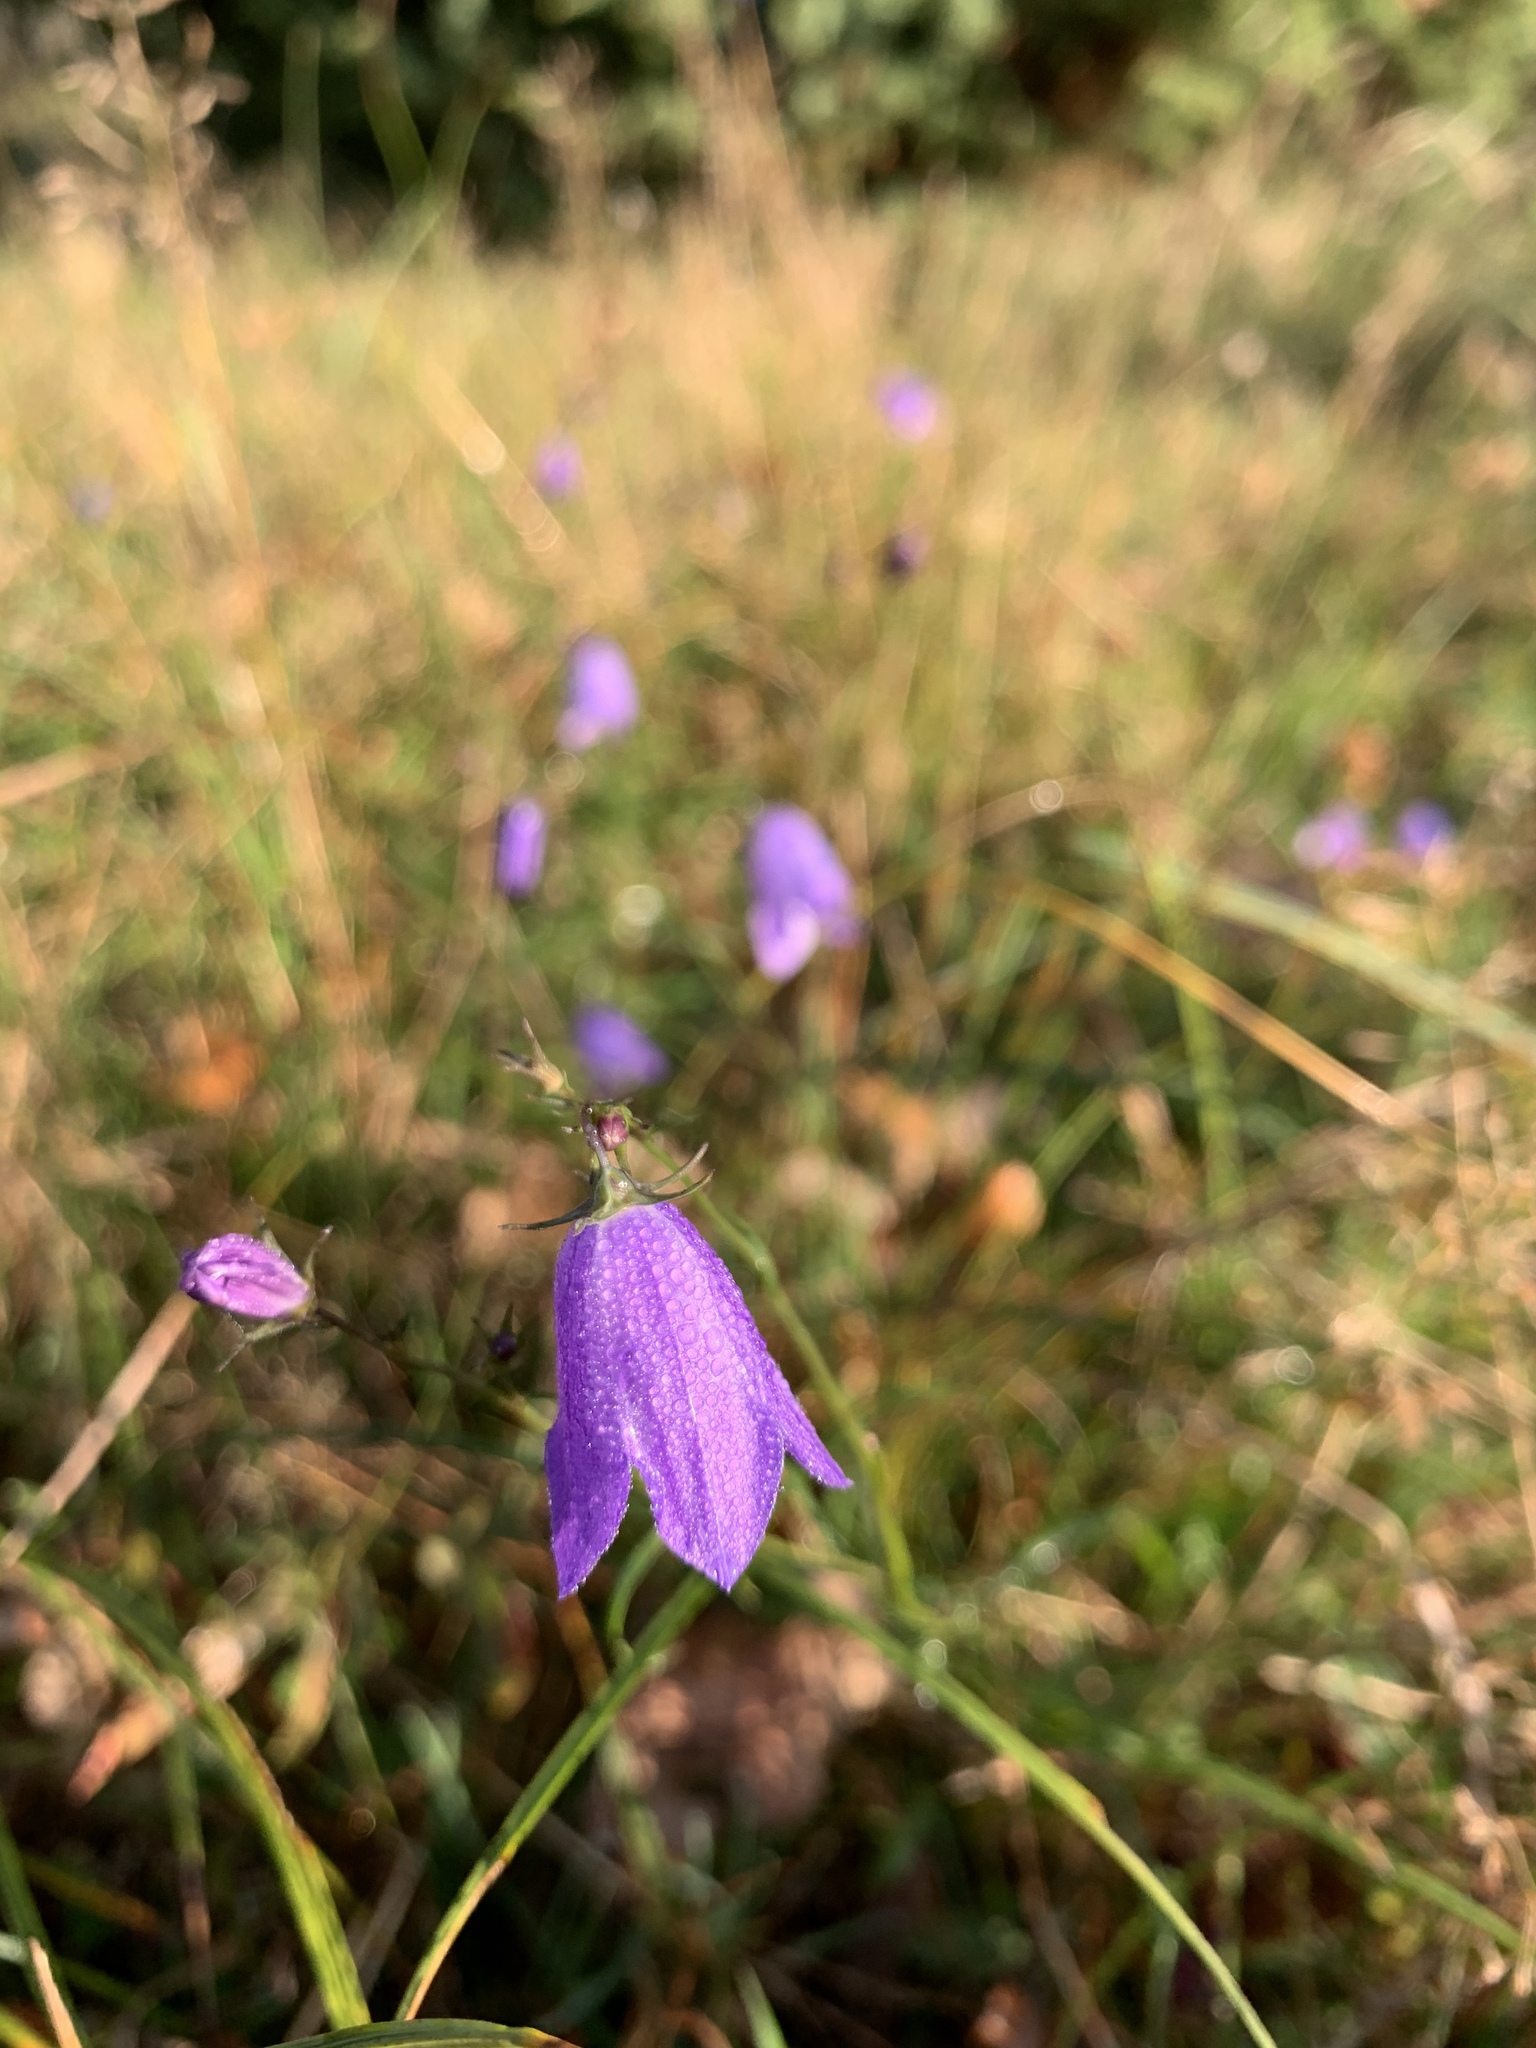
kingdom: Plantae
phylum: Tracheophyta
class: Magnoliopsida
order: Asterales
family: Campanulaceae
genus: Campanula
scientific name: Campanula rotundifolia
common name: Harebell
